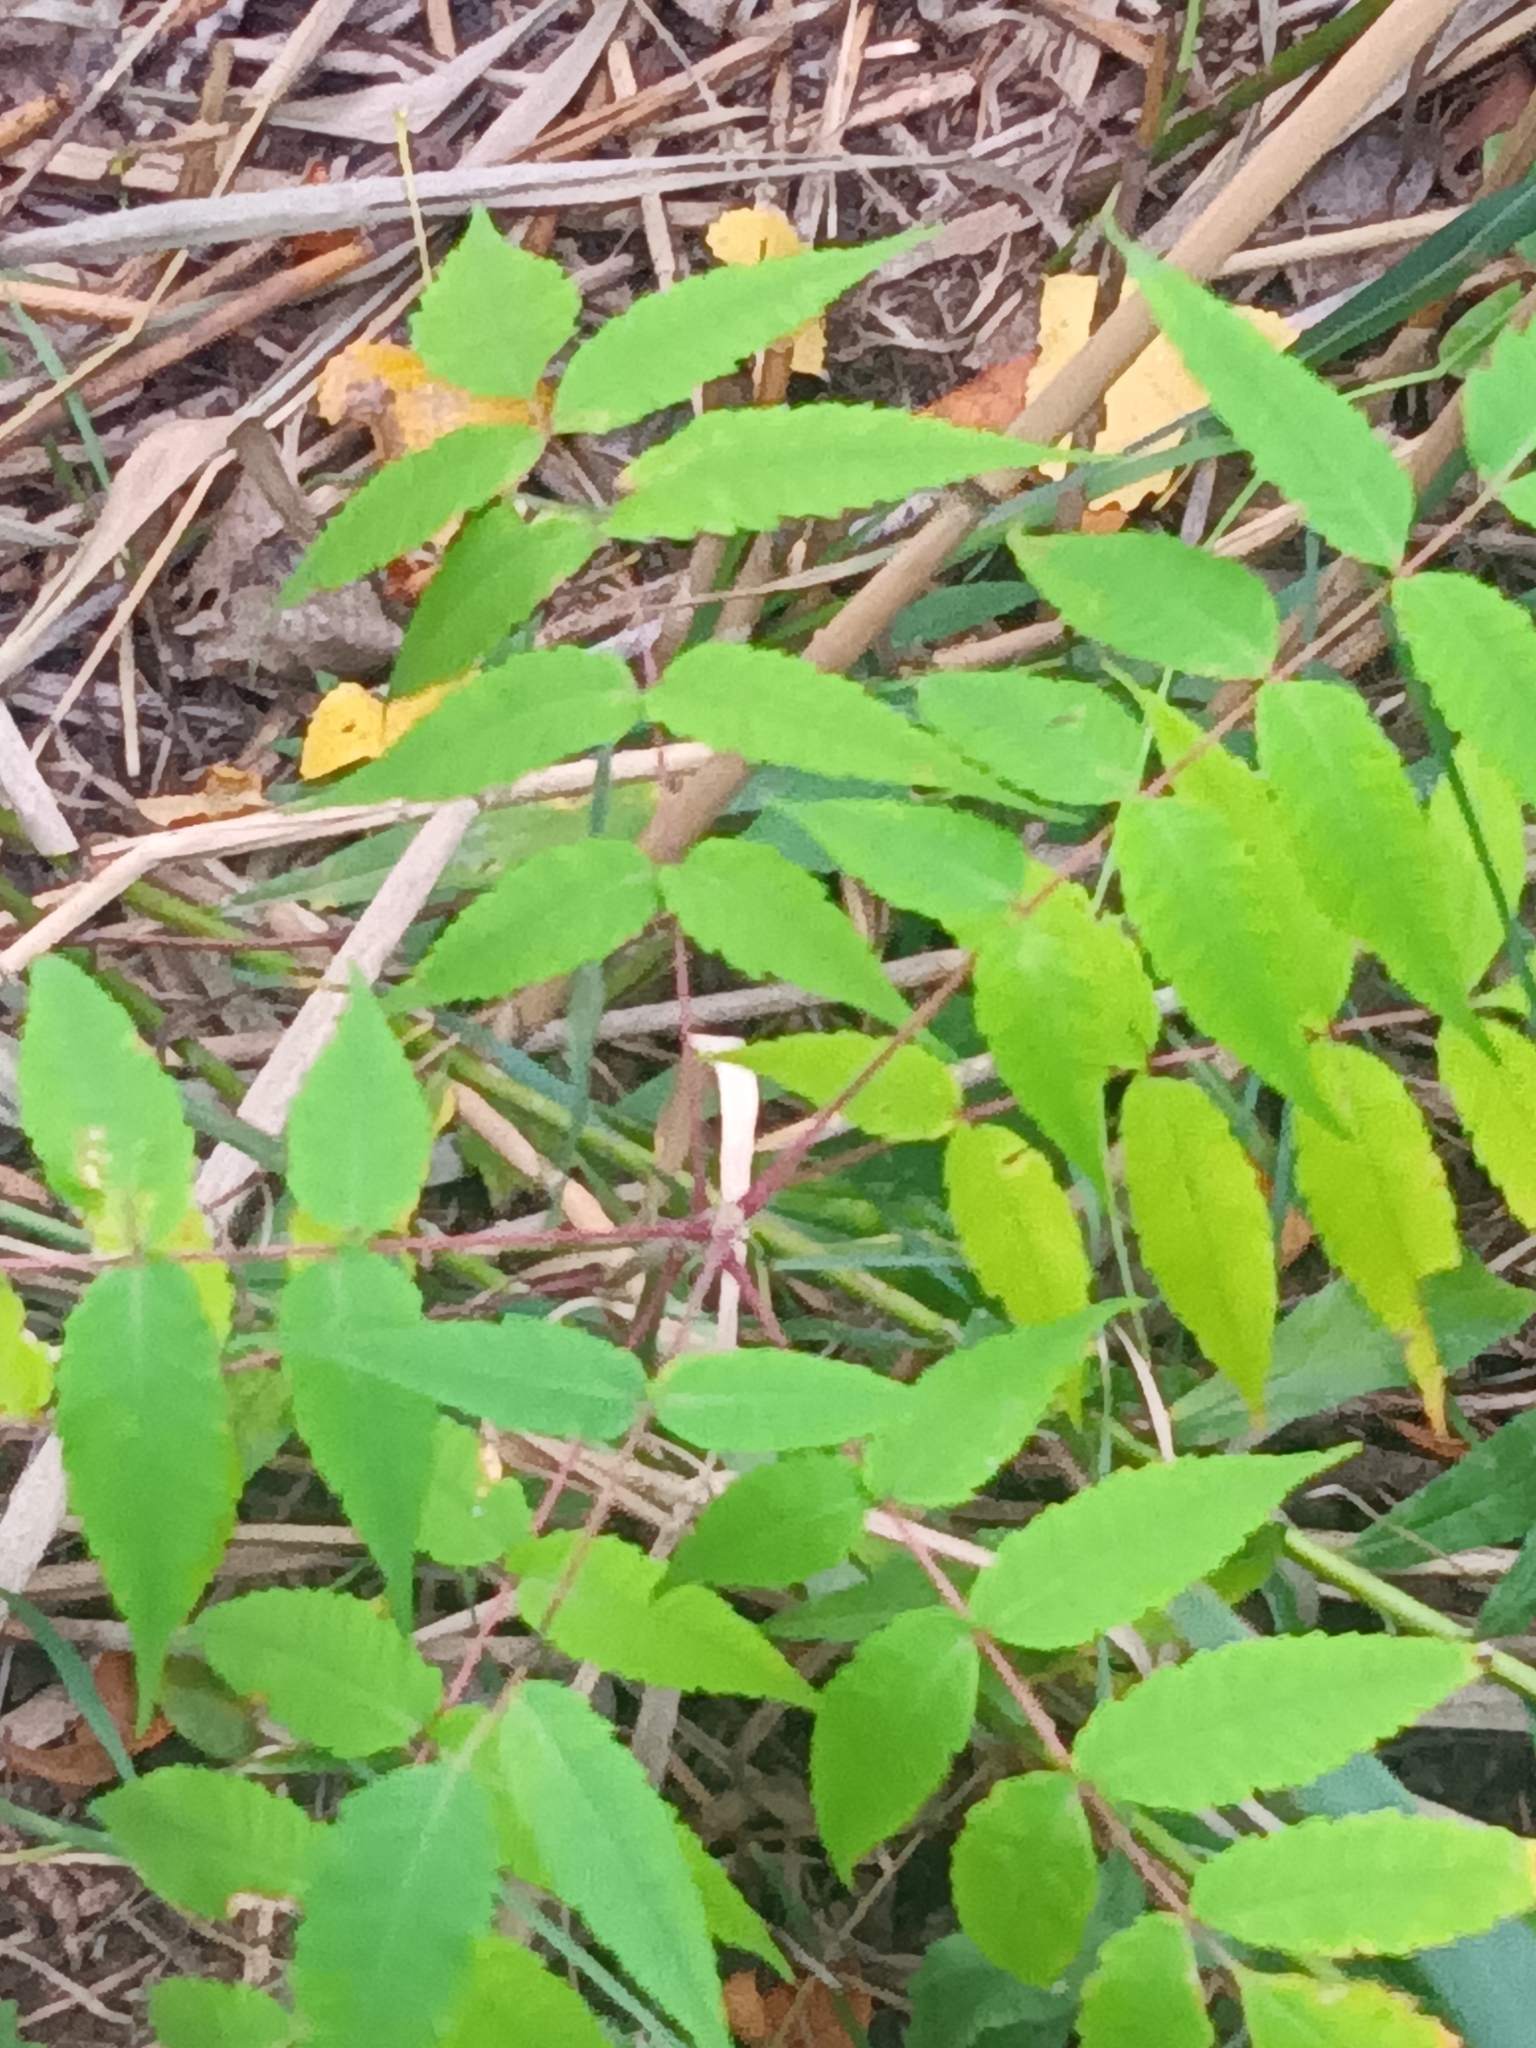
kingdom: Plantae
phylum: Tracheophyta
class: Magnoliopsida
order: Sapindales
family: Anacardiaceae
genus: Rhus
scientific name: Rhus typhina
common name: Staghorn sumac
